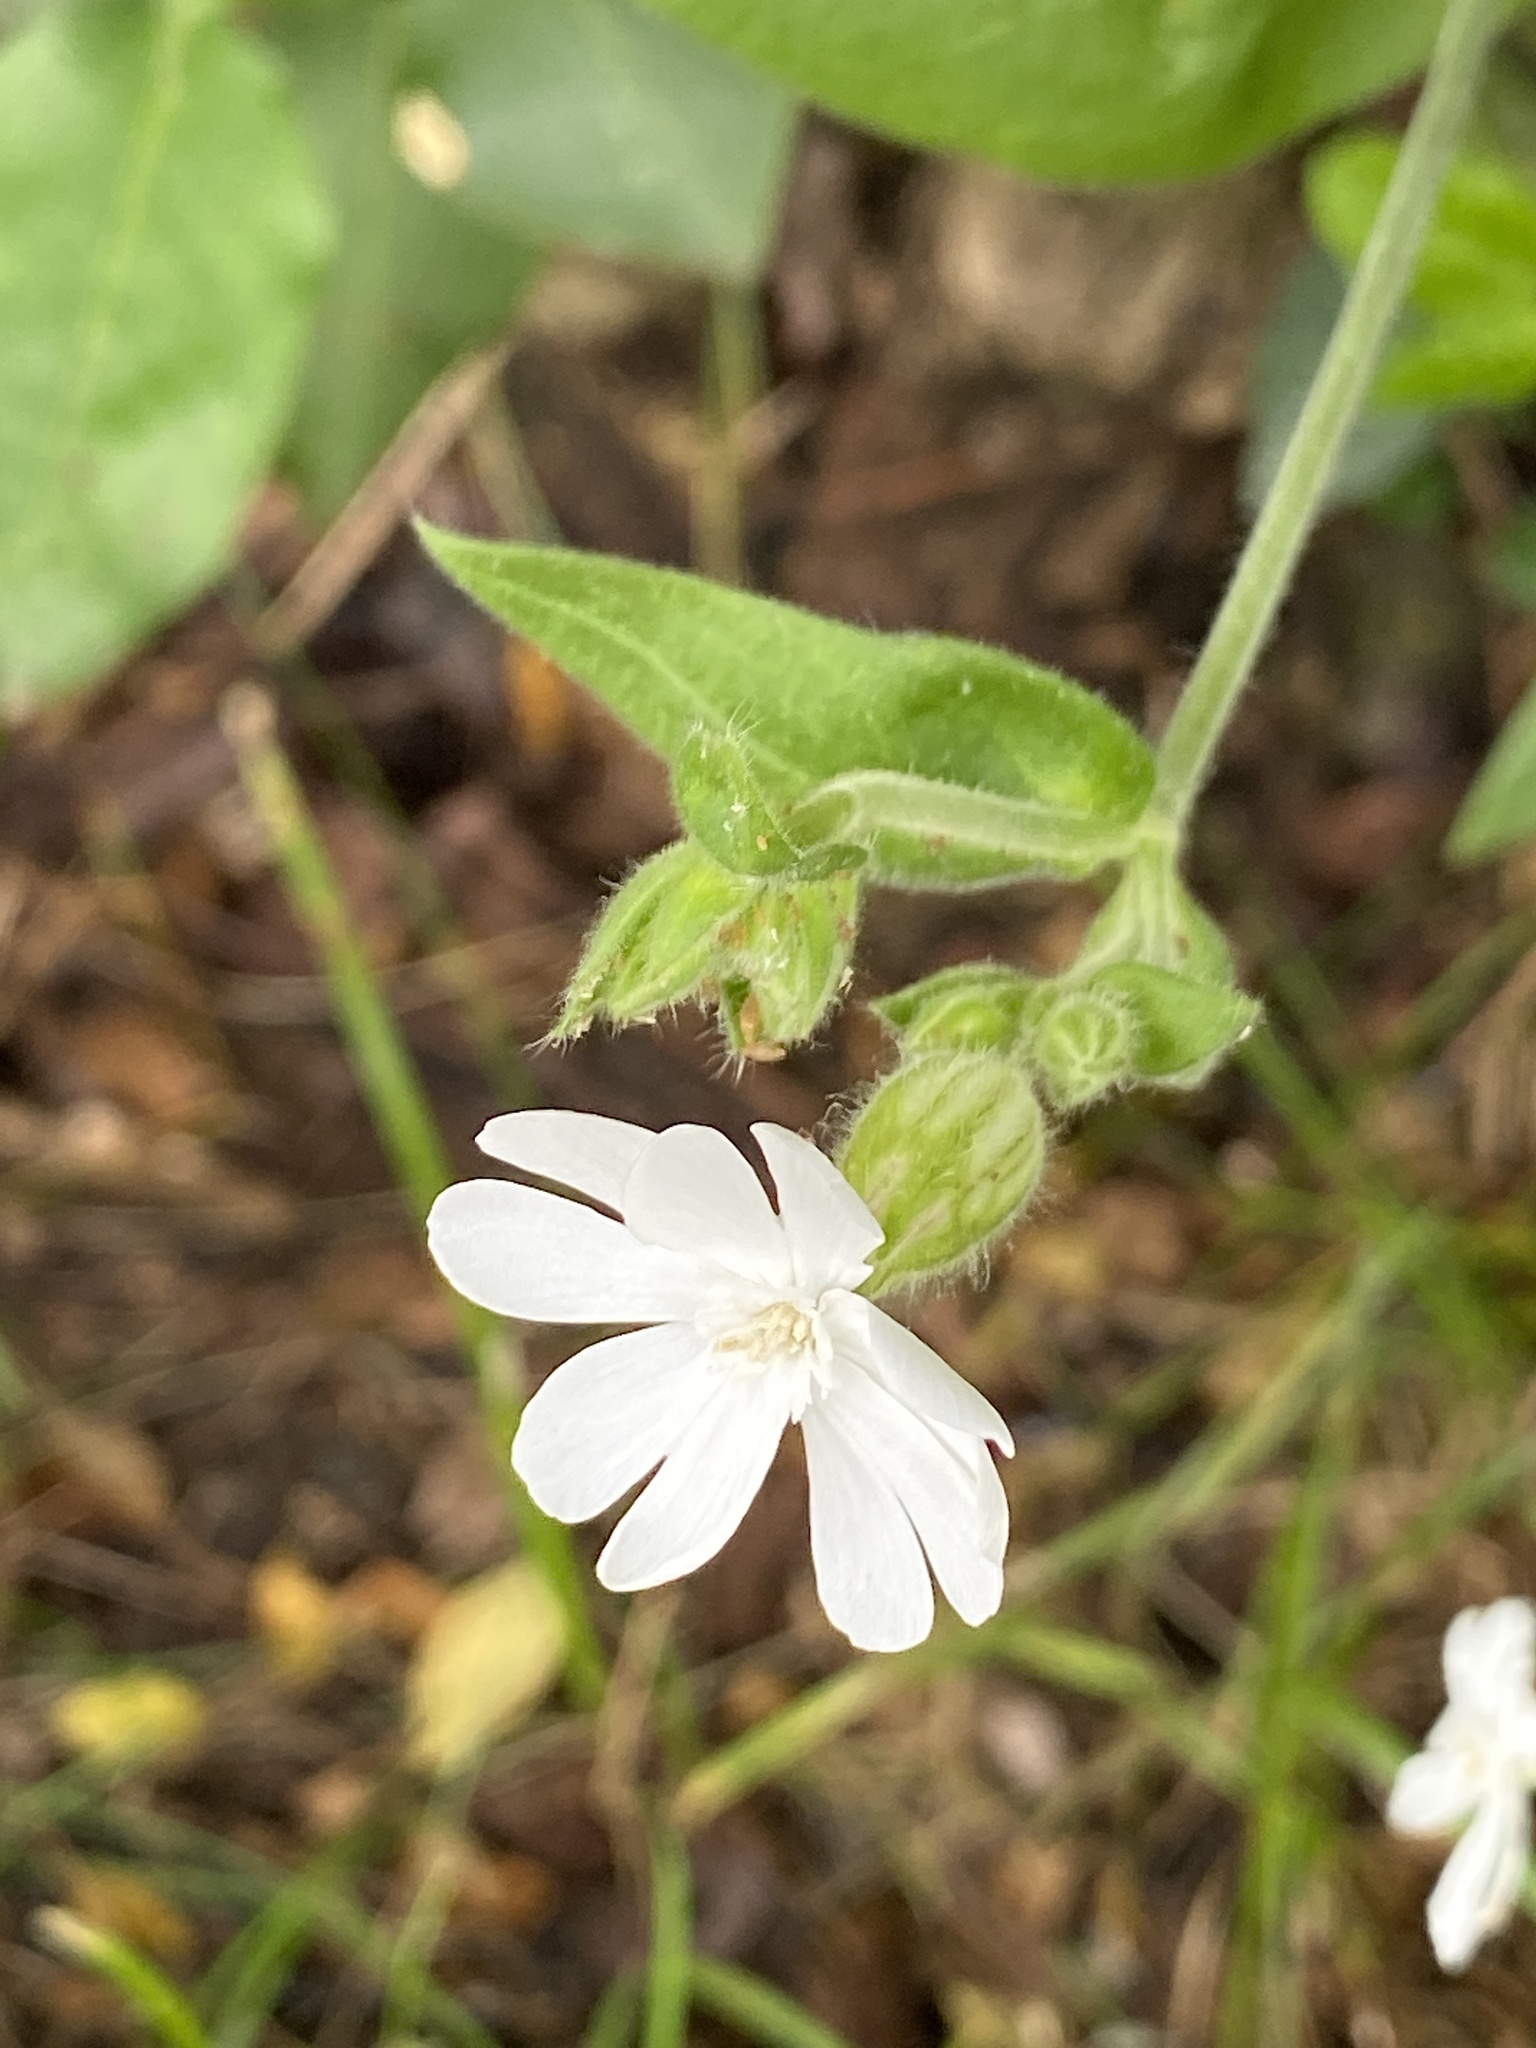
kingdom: Plantae
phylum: Tracheophyta
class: Magnoliopsida
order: Caryophyllales
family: Caryophyllaceae
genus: Silene
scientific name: Silene latifolia
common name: White campion
